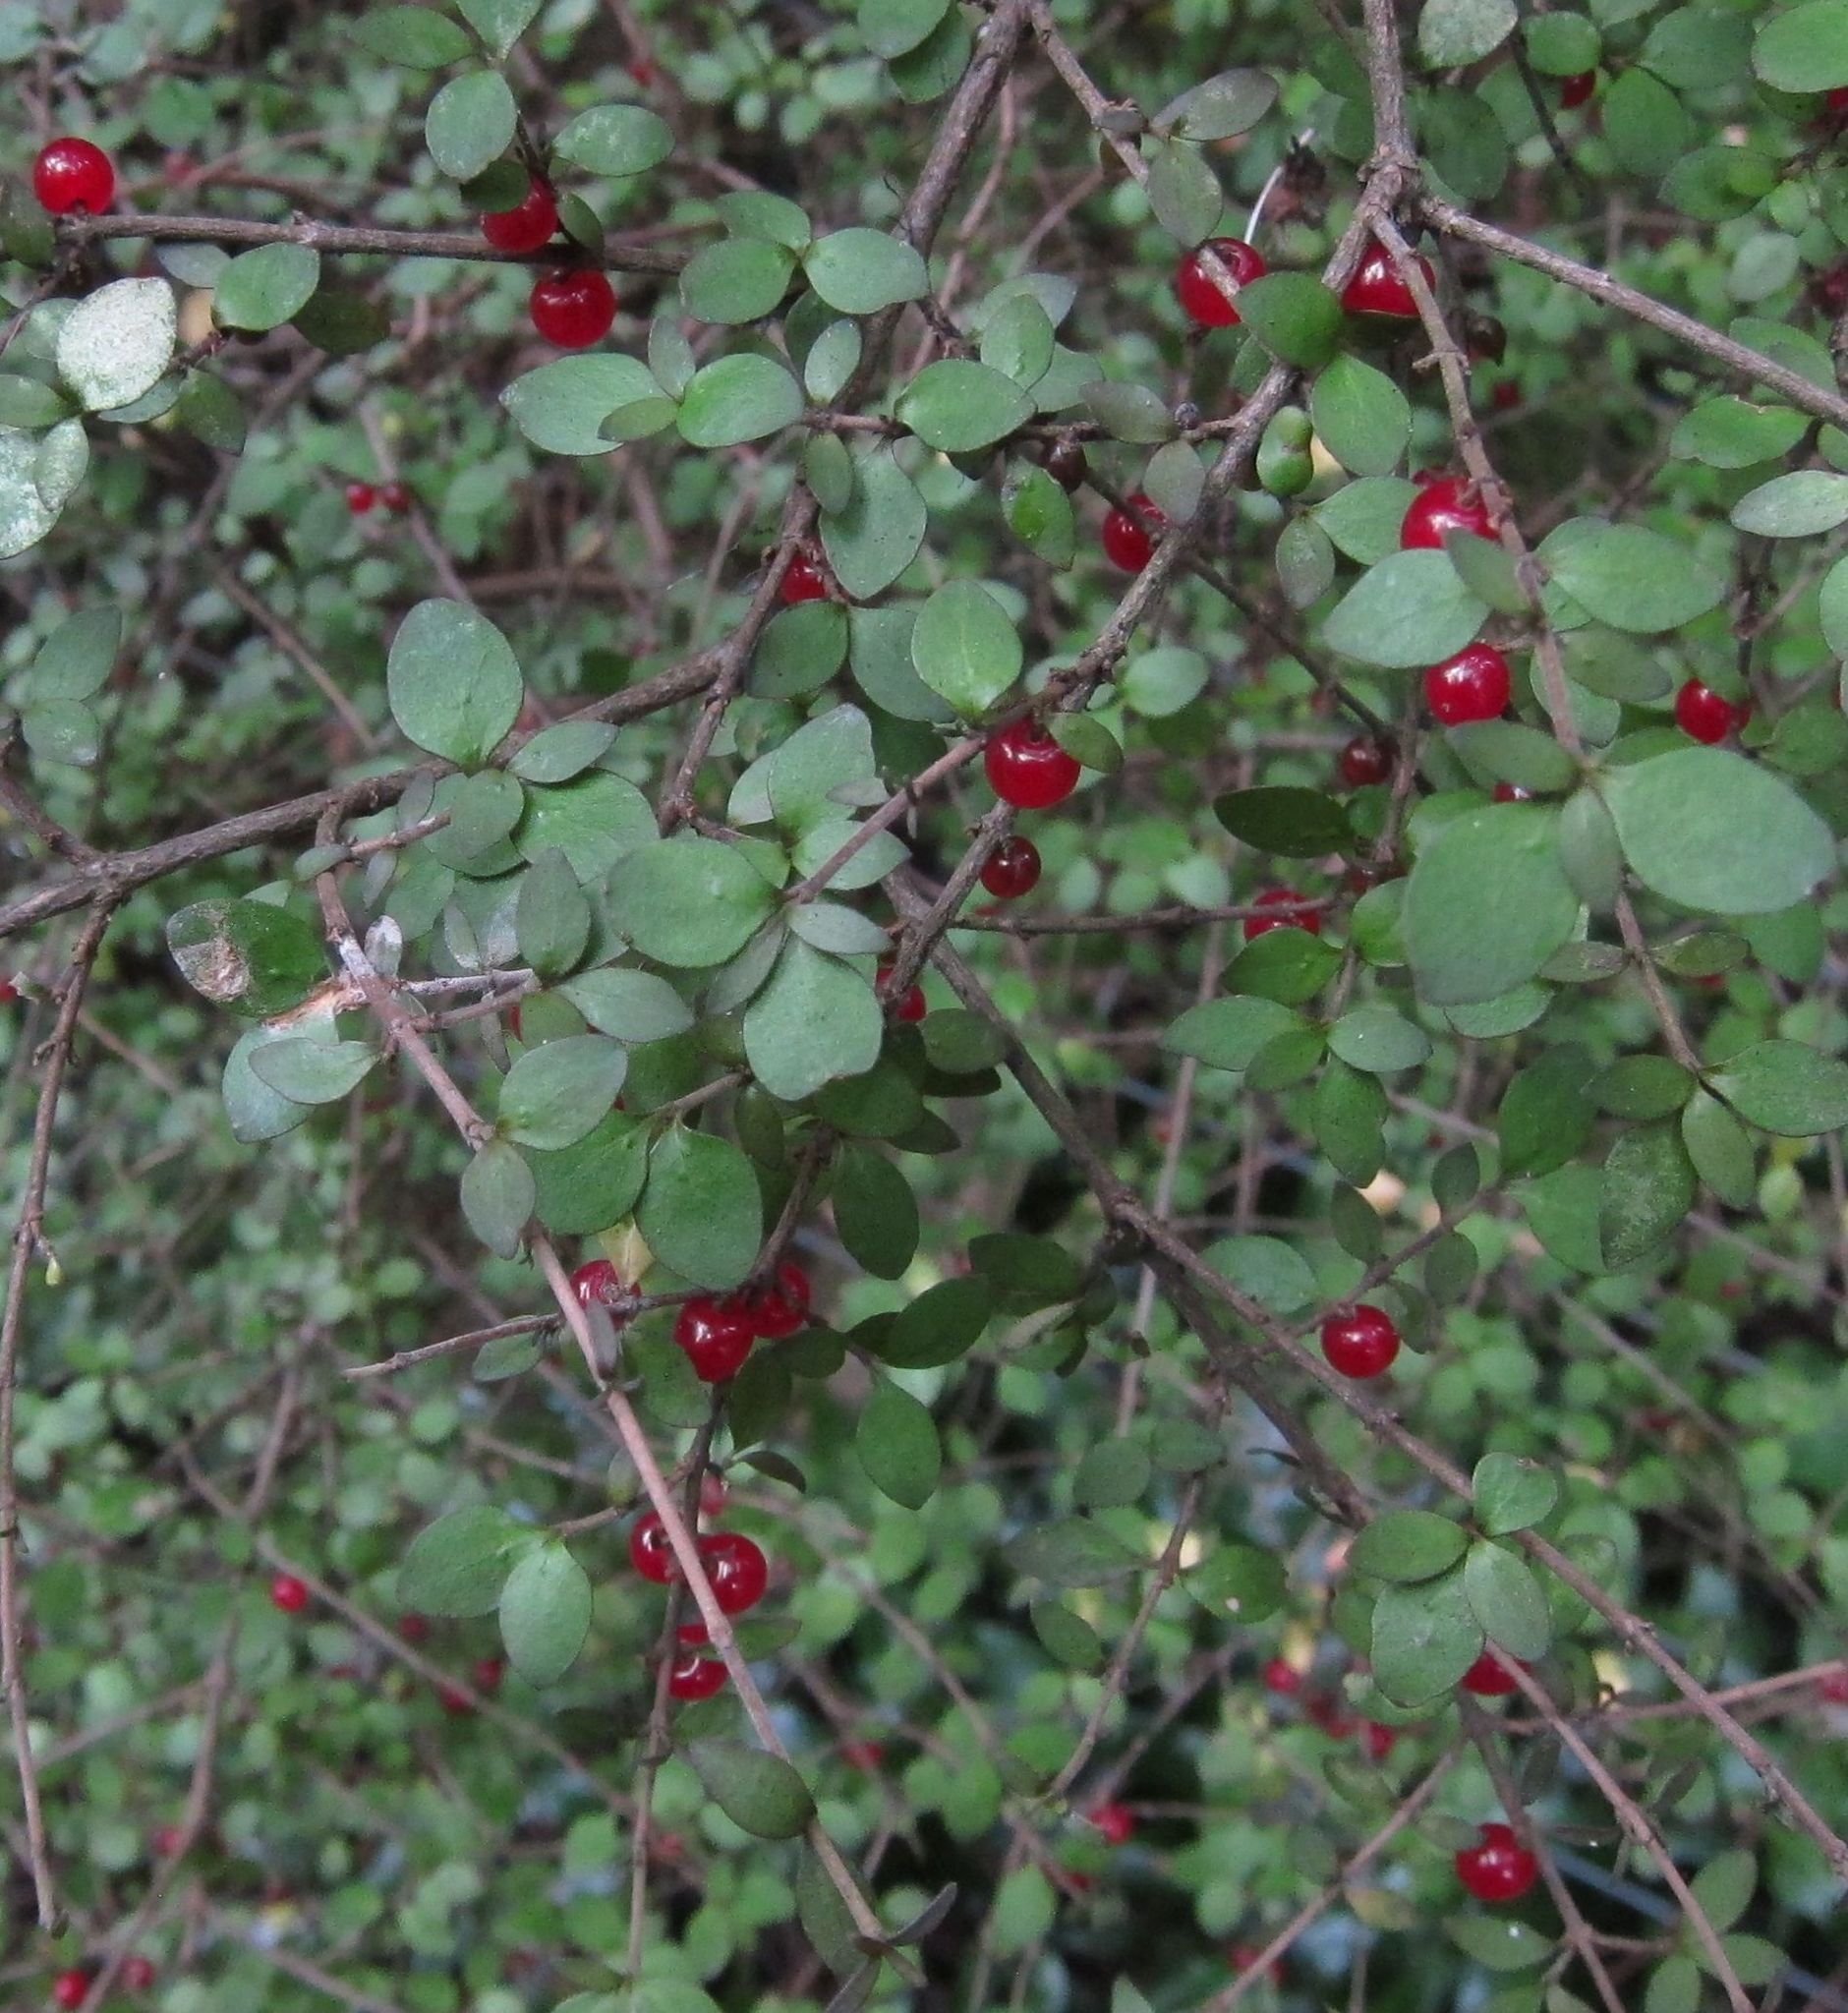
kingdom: Plantae
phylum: Tracheophyta
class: Magnoliopsida
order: Gentianales
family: Rubiaceae
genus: Coprosma
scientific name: Coprosma rhamnoides
